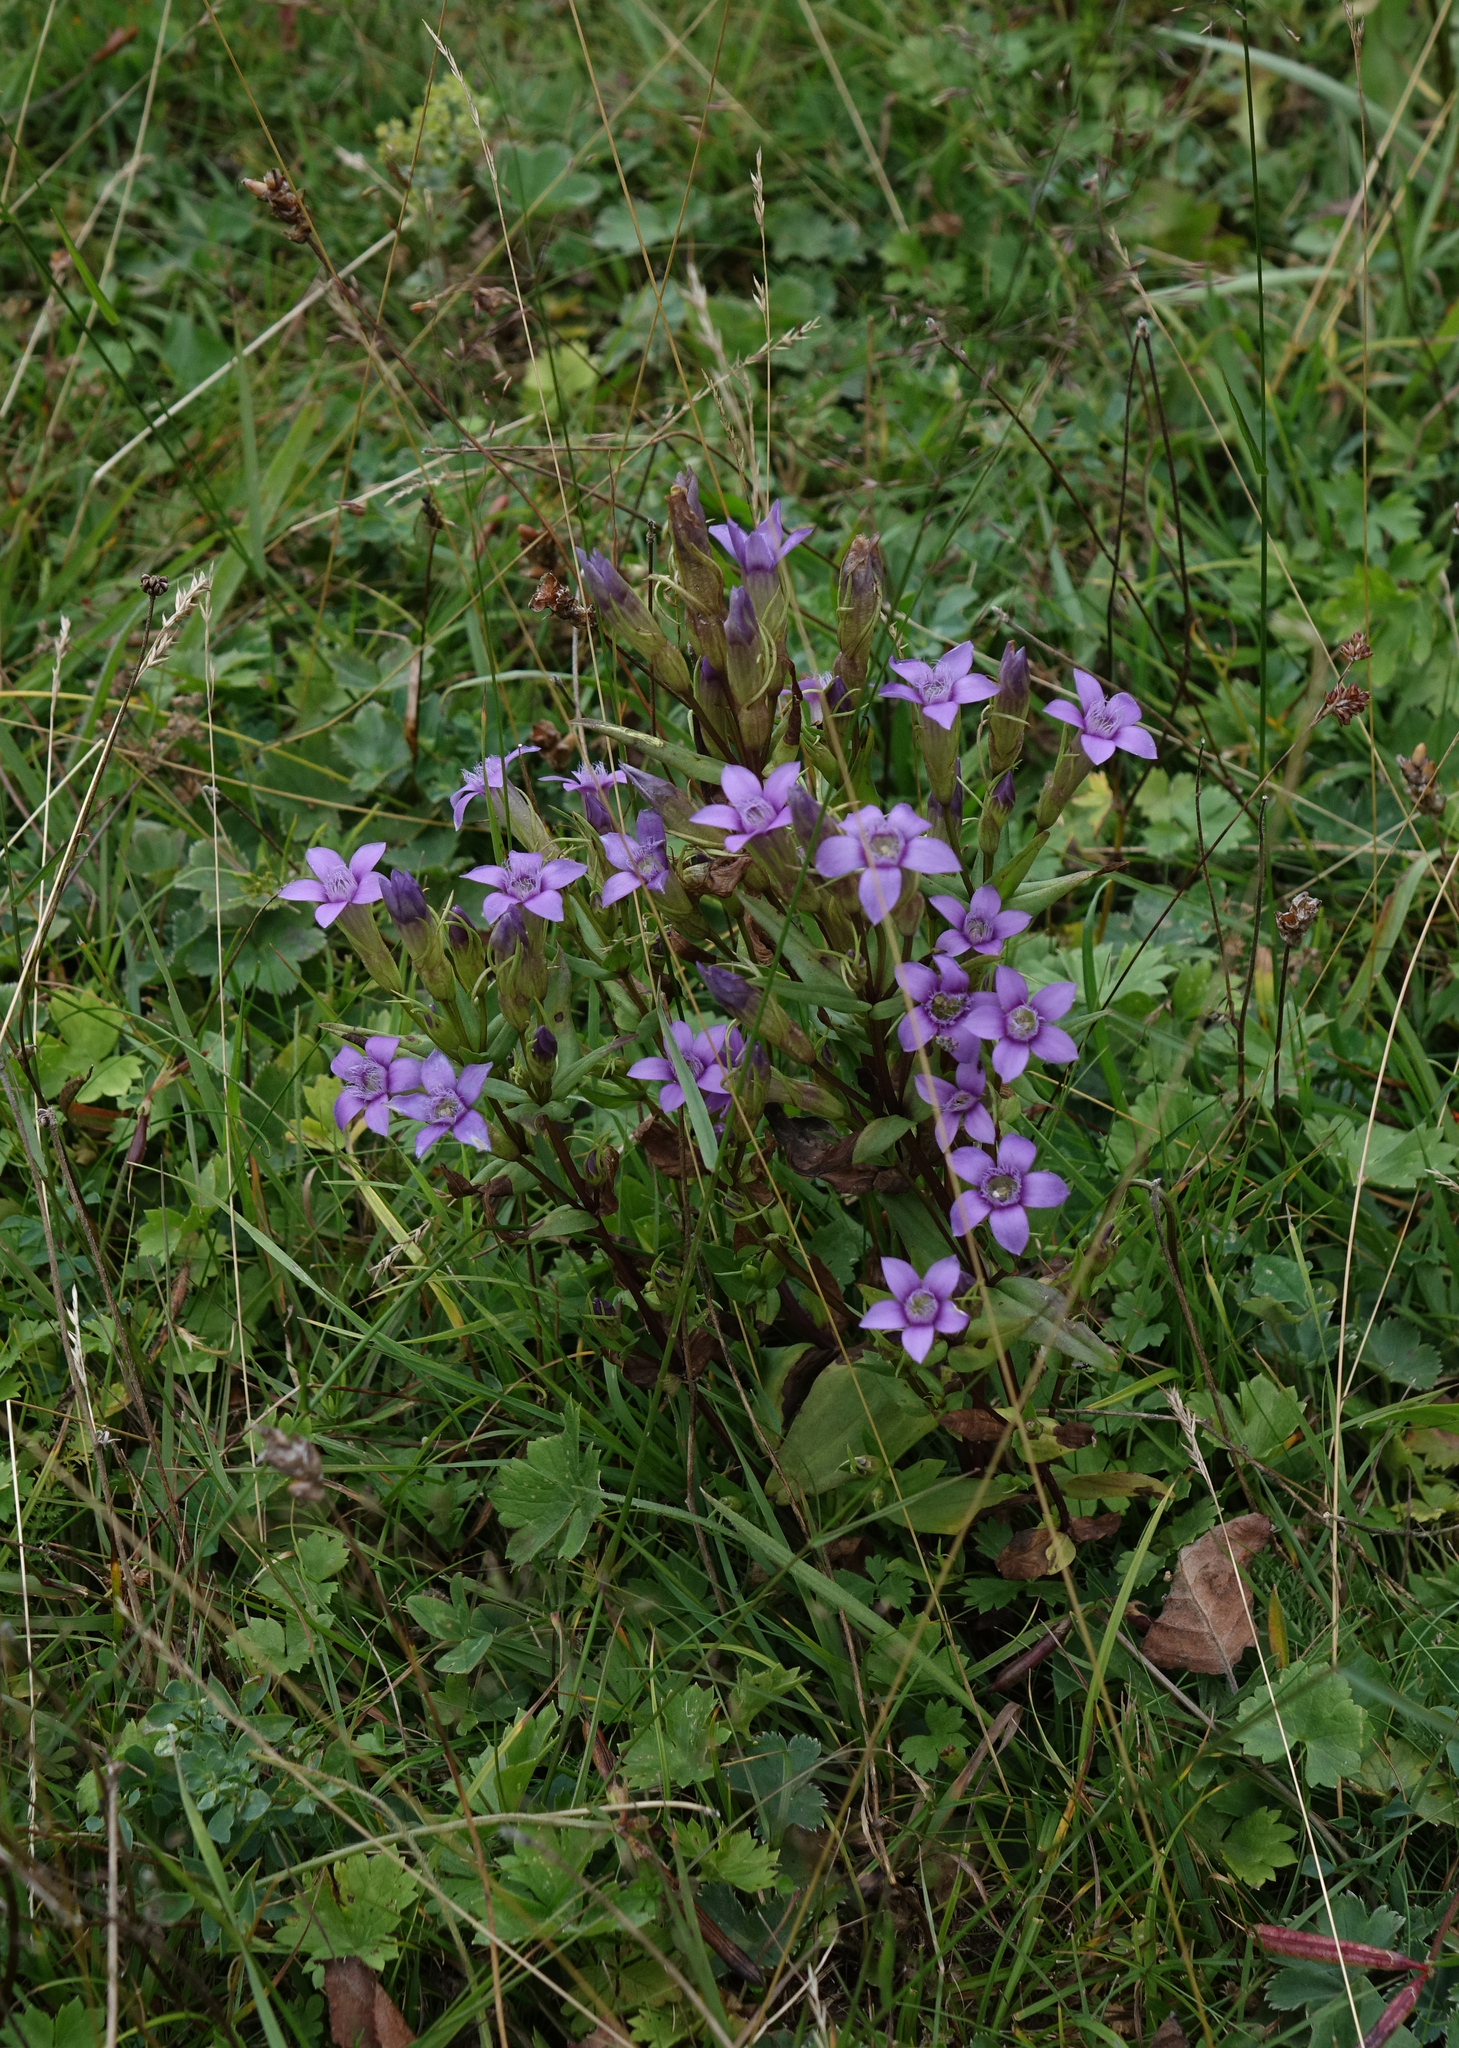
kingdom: Plantae
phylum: Tracheophyta
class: Magnoliopsida
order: Gentianales
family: Gentianaceae
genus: Gentianella
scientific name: Gentianella caucasea
